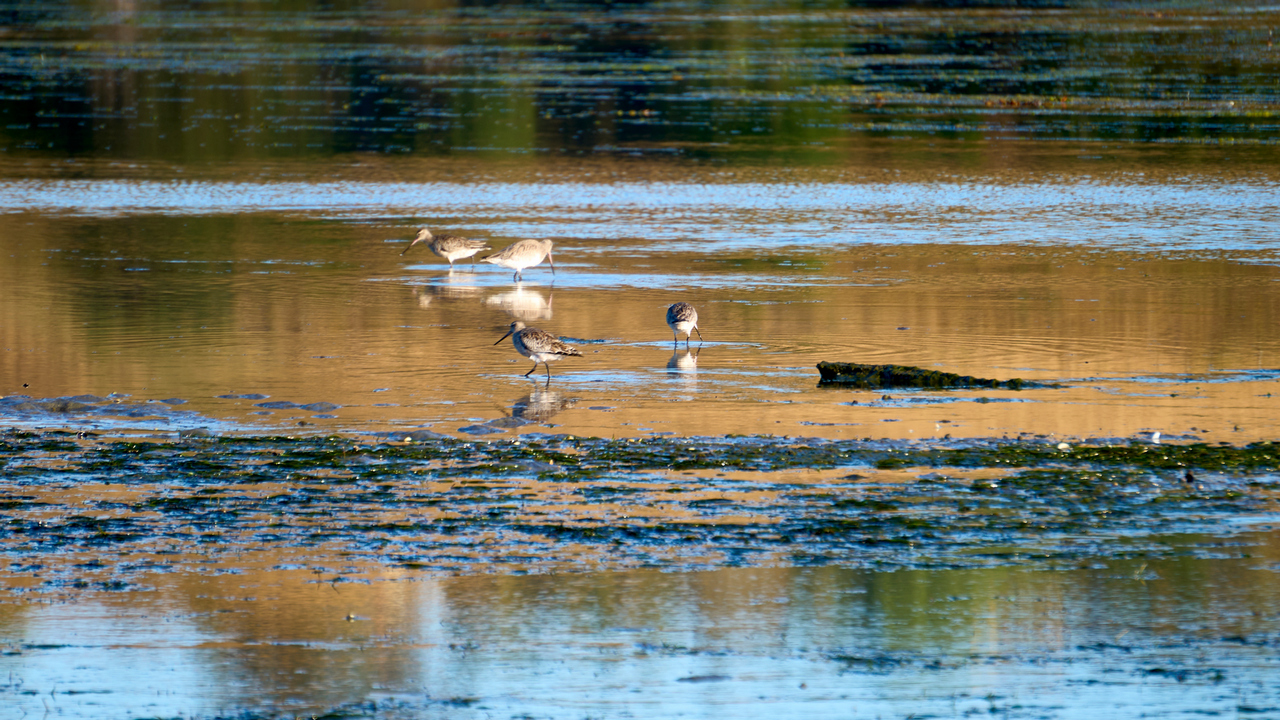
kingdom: Animalia
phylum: Chordata
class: Aves
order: Charadriiformes
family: Scolopacidae
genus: Limosa
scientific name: Limosa lapponica
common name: Bar-tailed godwit
